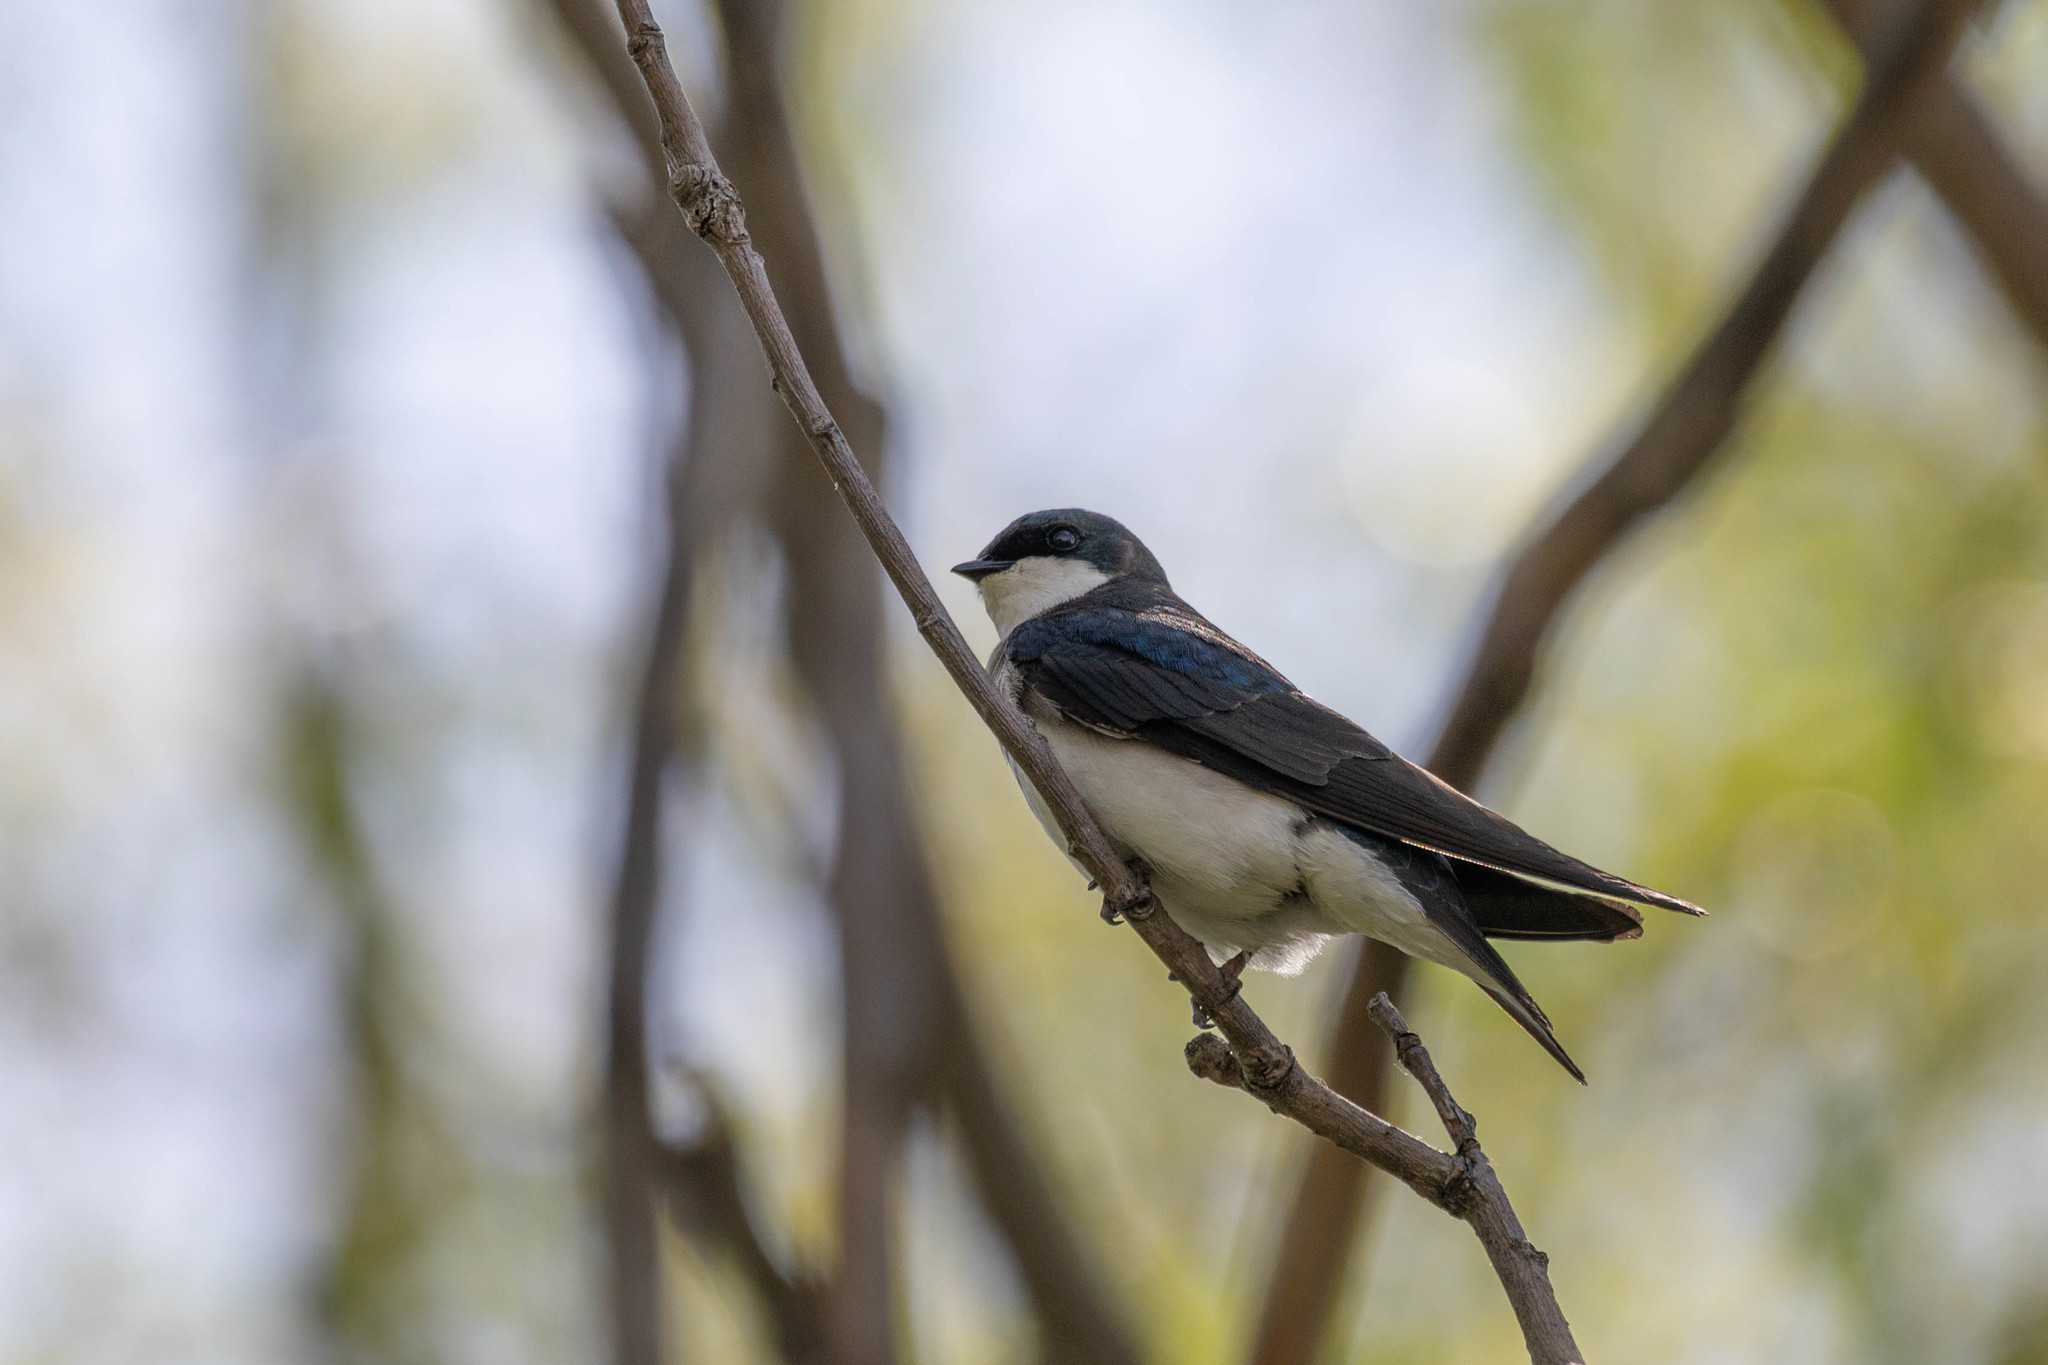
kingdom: Animalia
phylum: Chordata
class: Aves
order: Passeriformes
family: Hirundinidae
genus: Tachycineta
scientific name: Tachycineta bicolor
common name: Tree swallow
